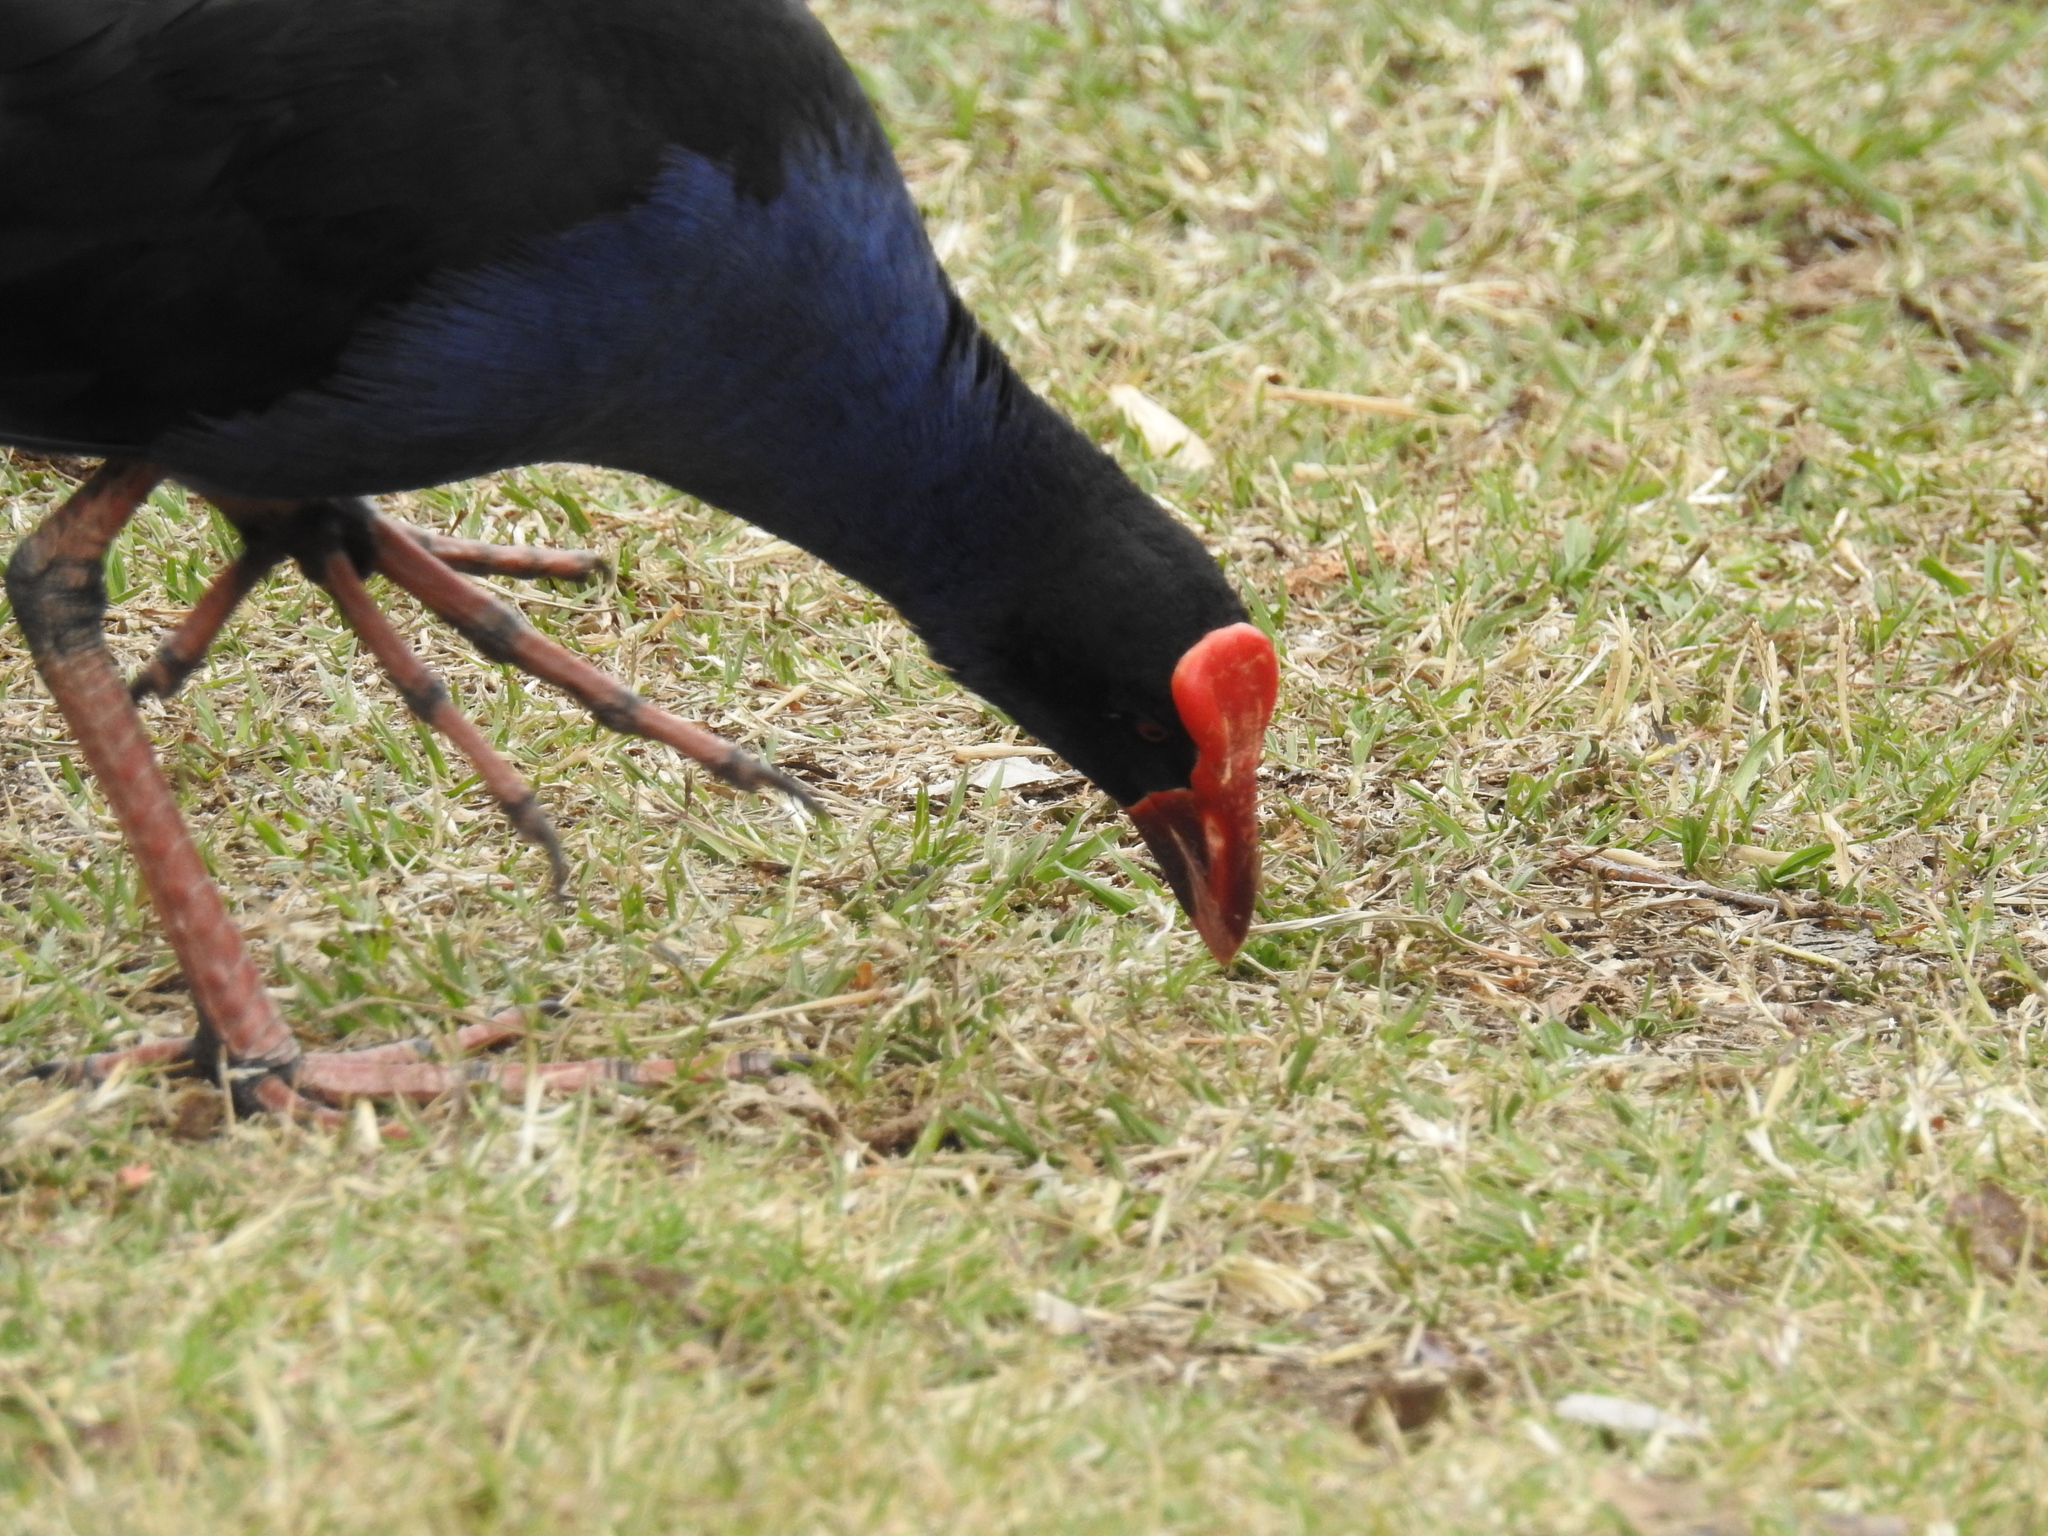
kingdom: Animalia
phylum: Chordata
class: Aves
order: Gruiformes
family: Rallidae
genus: Porphyrio
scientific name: Porphyrio melanotus
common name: Australasian swamphen
